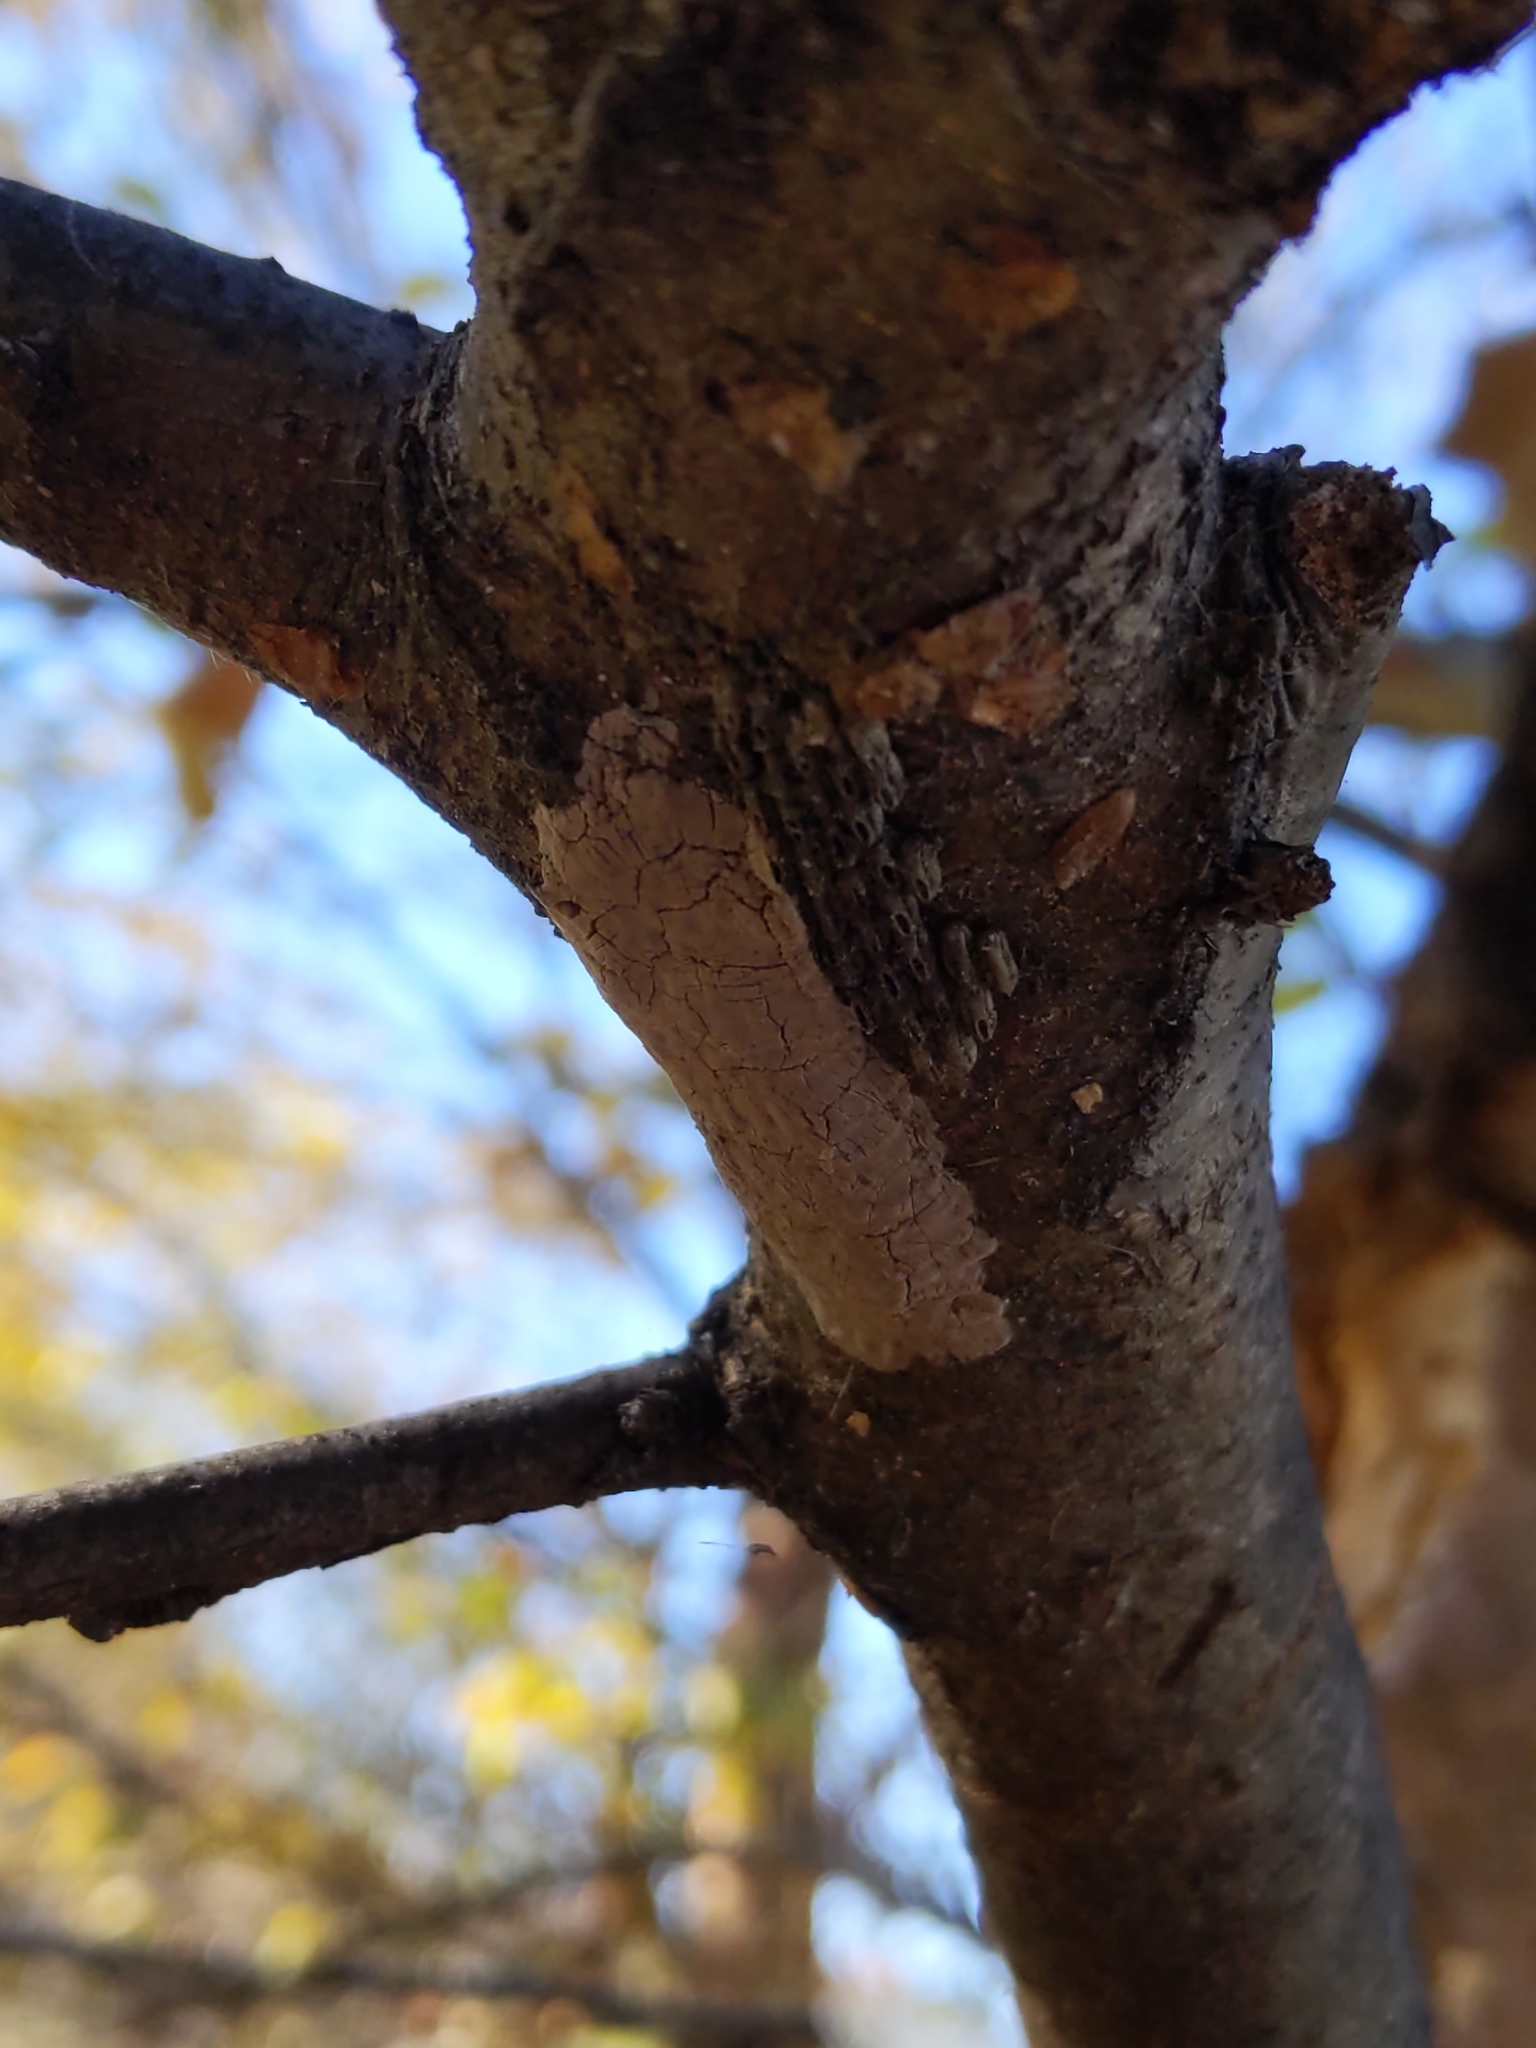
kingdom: Animalia
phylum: Arthropoda
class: Insecta
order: Hemiptera
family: Fulgoridae
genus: Lycorma
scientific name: Lycorma delicatula
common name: Spotted lanternfly
